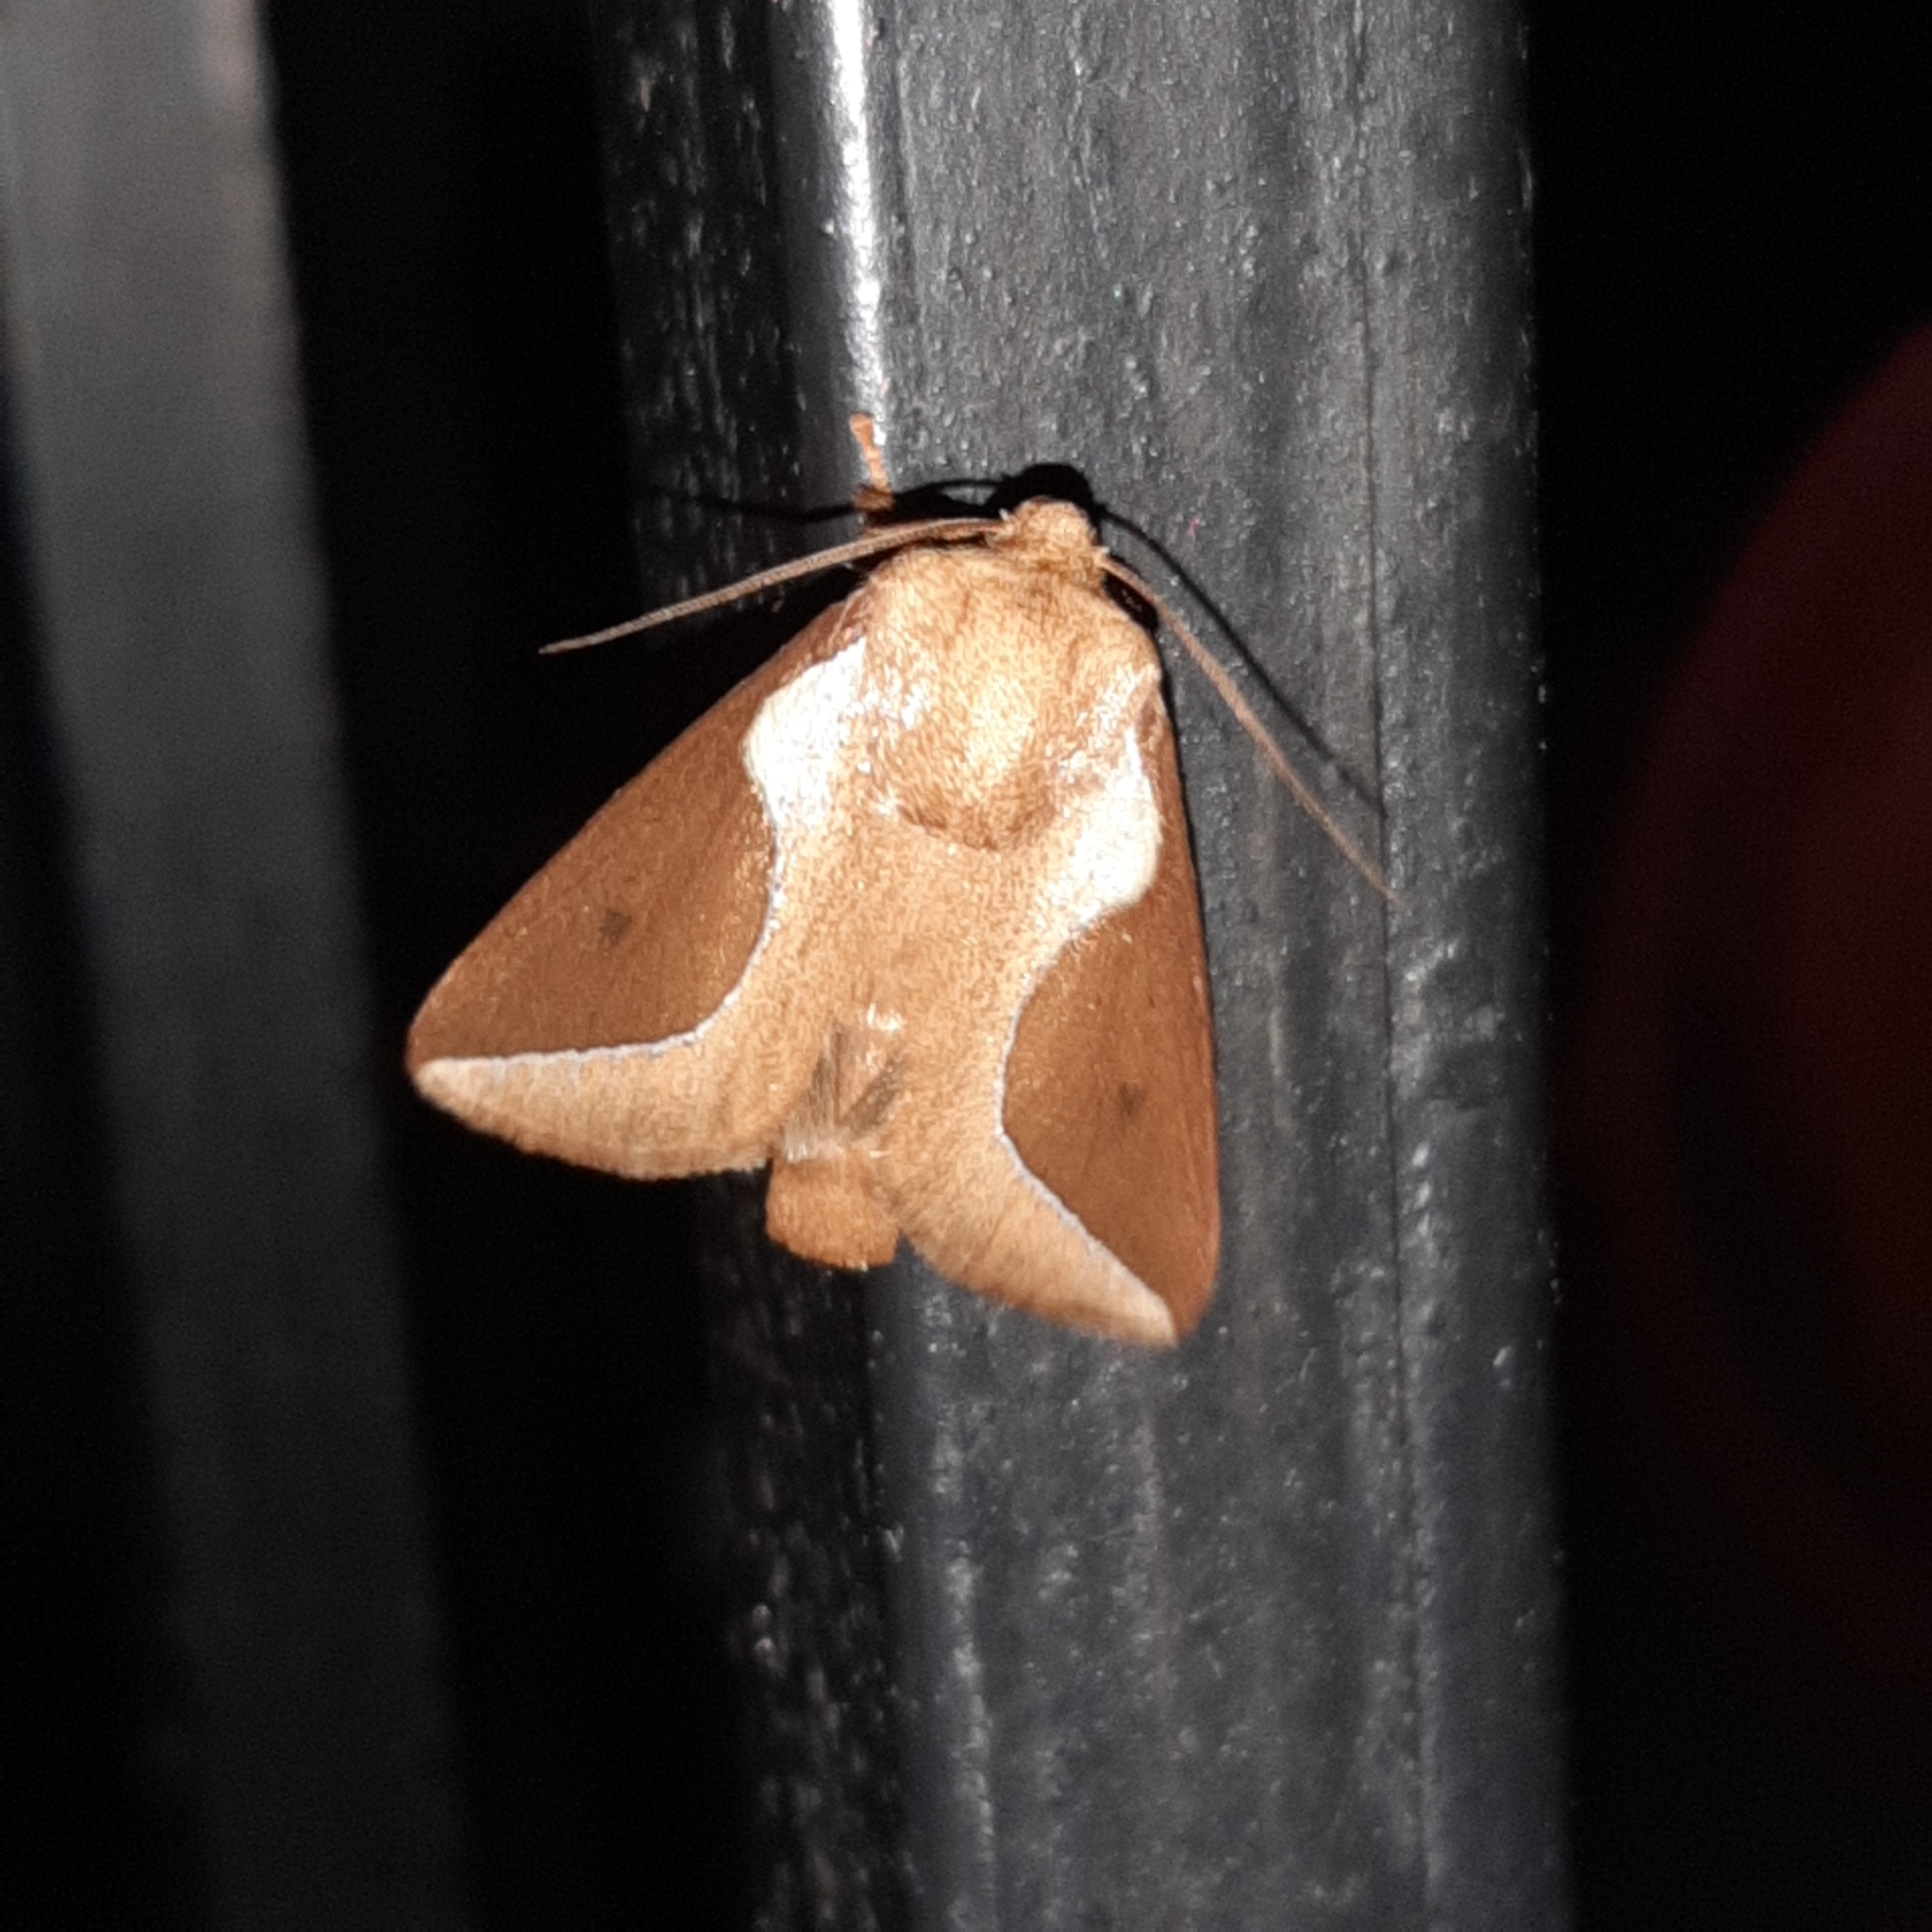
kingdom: Animalia
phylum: Arthropoda
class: Insecta
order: Lepidoptera
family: Limacodidae
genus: Prolimacodes
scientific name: Prolimacodes badia
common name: Skiff moth
